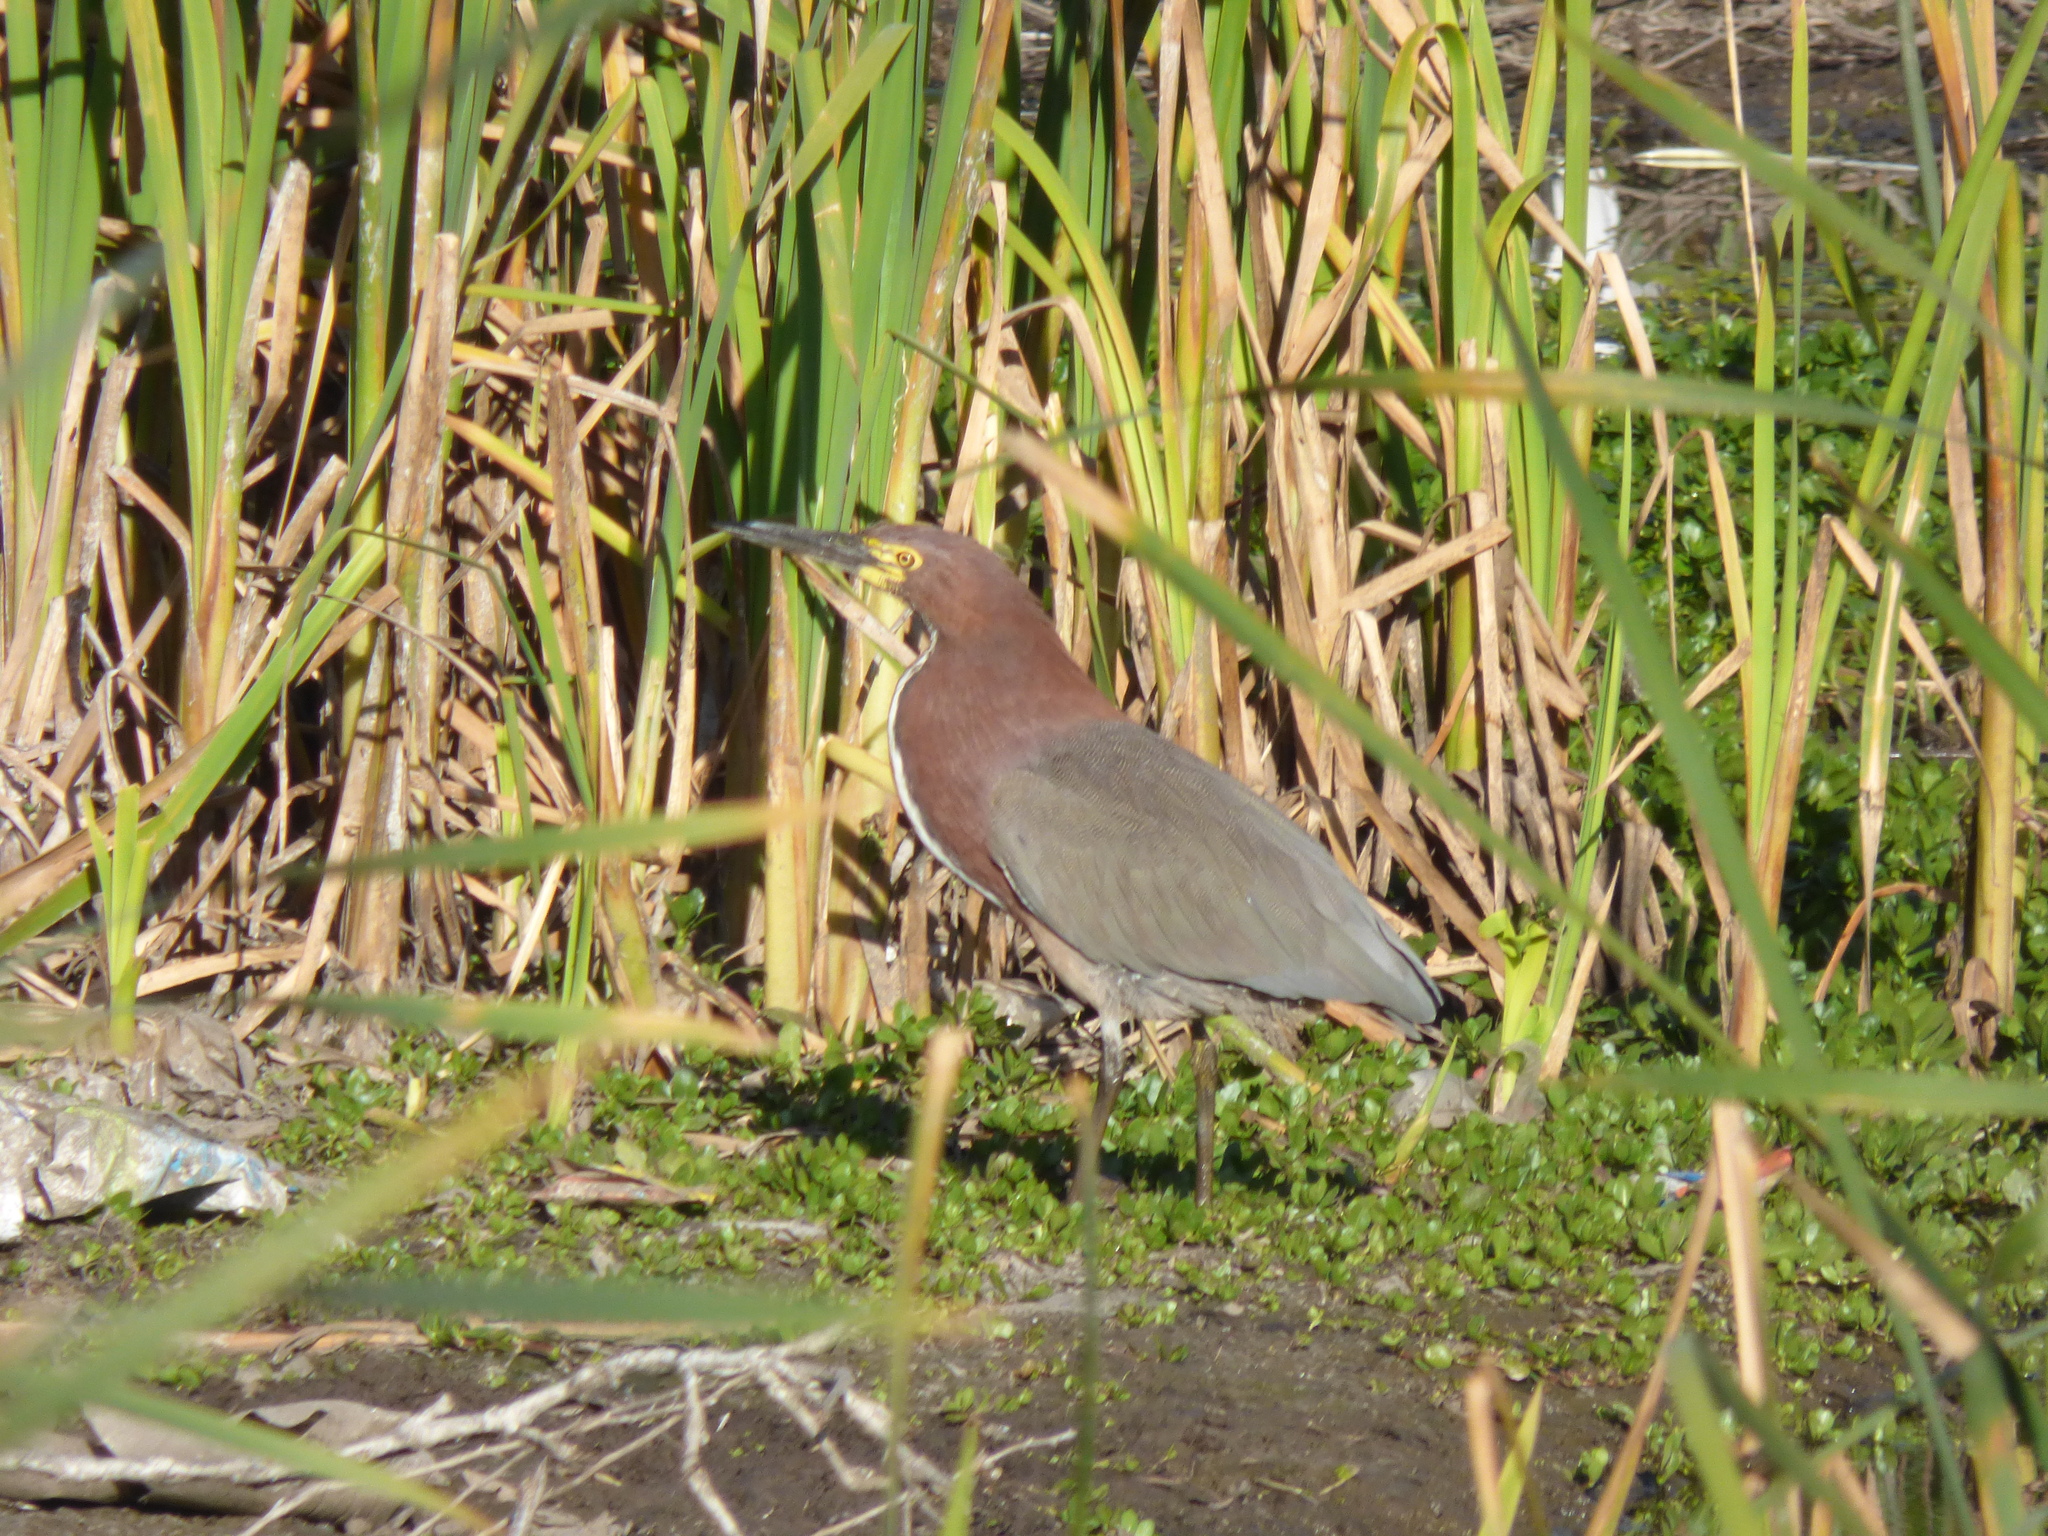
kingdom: Animalia
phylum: Chordata
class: Aves
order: Pelecaniformes
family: Ardeidae
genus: Tigrisoma
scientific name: Tigrisoma lineatum
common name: Rufescent tiger-heron
